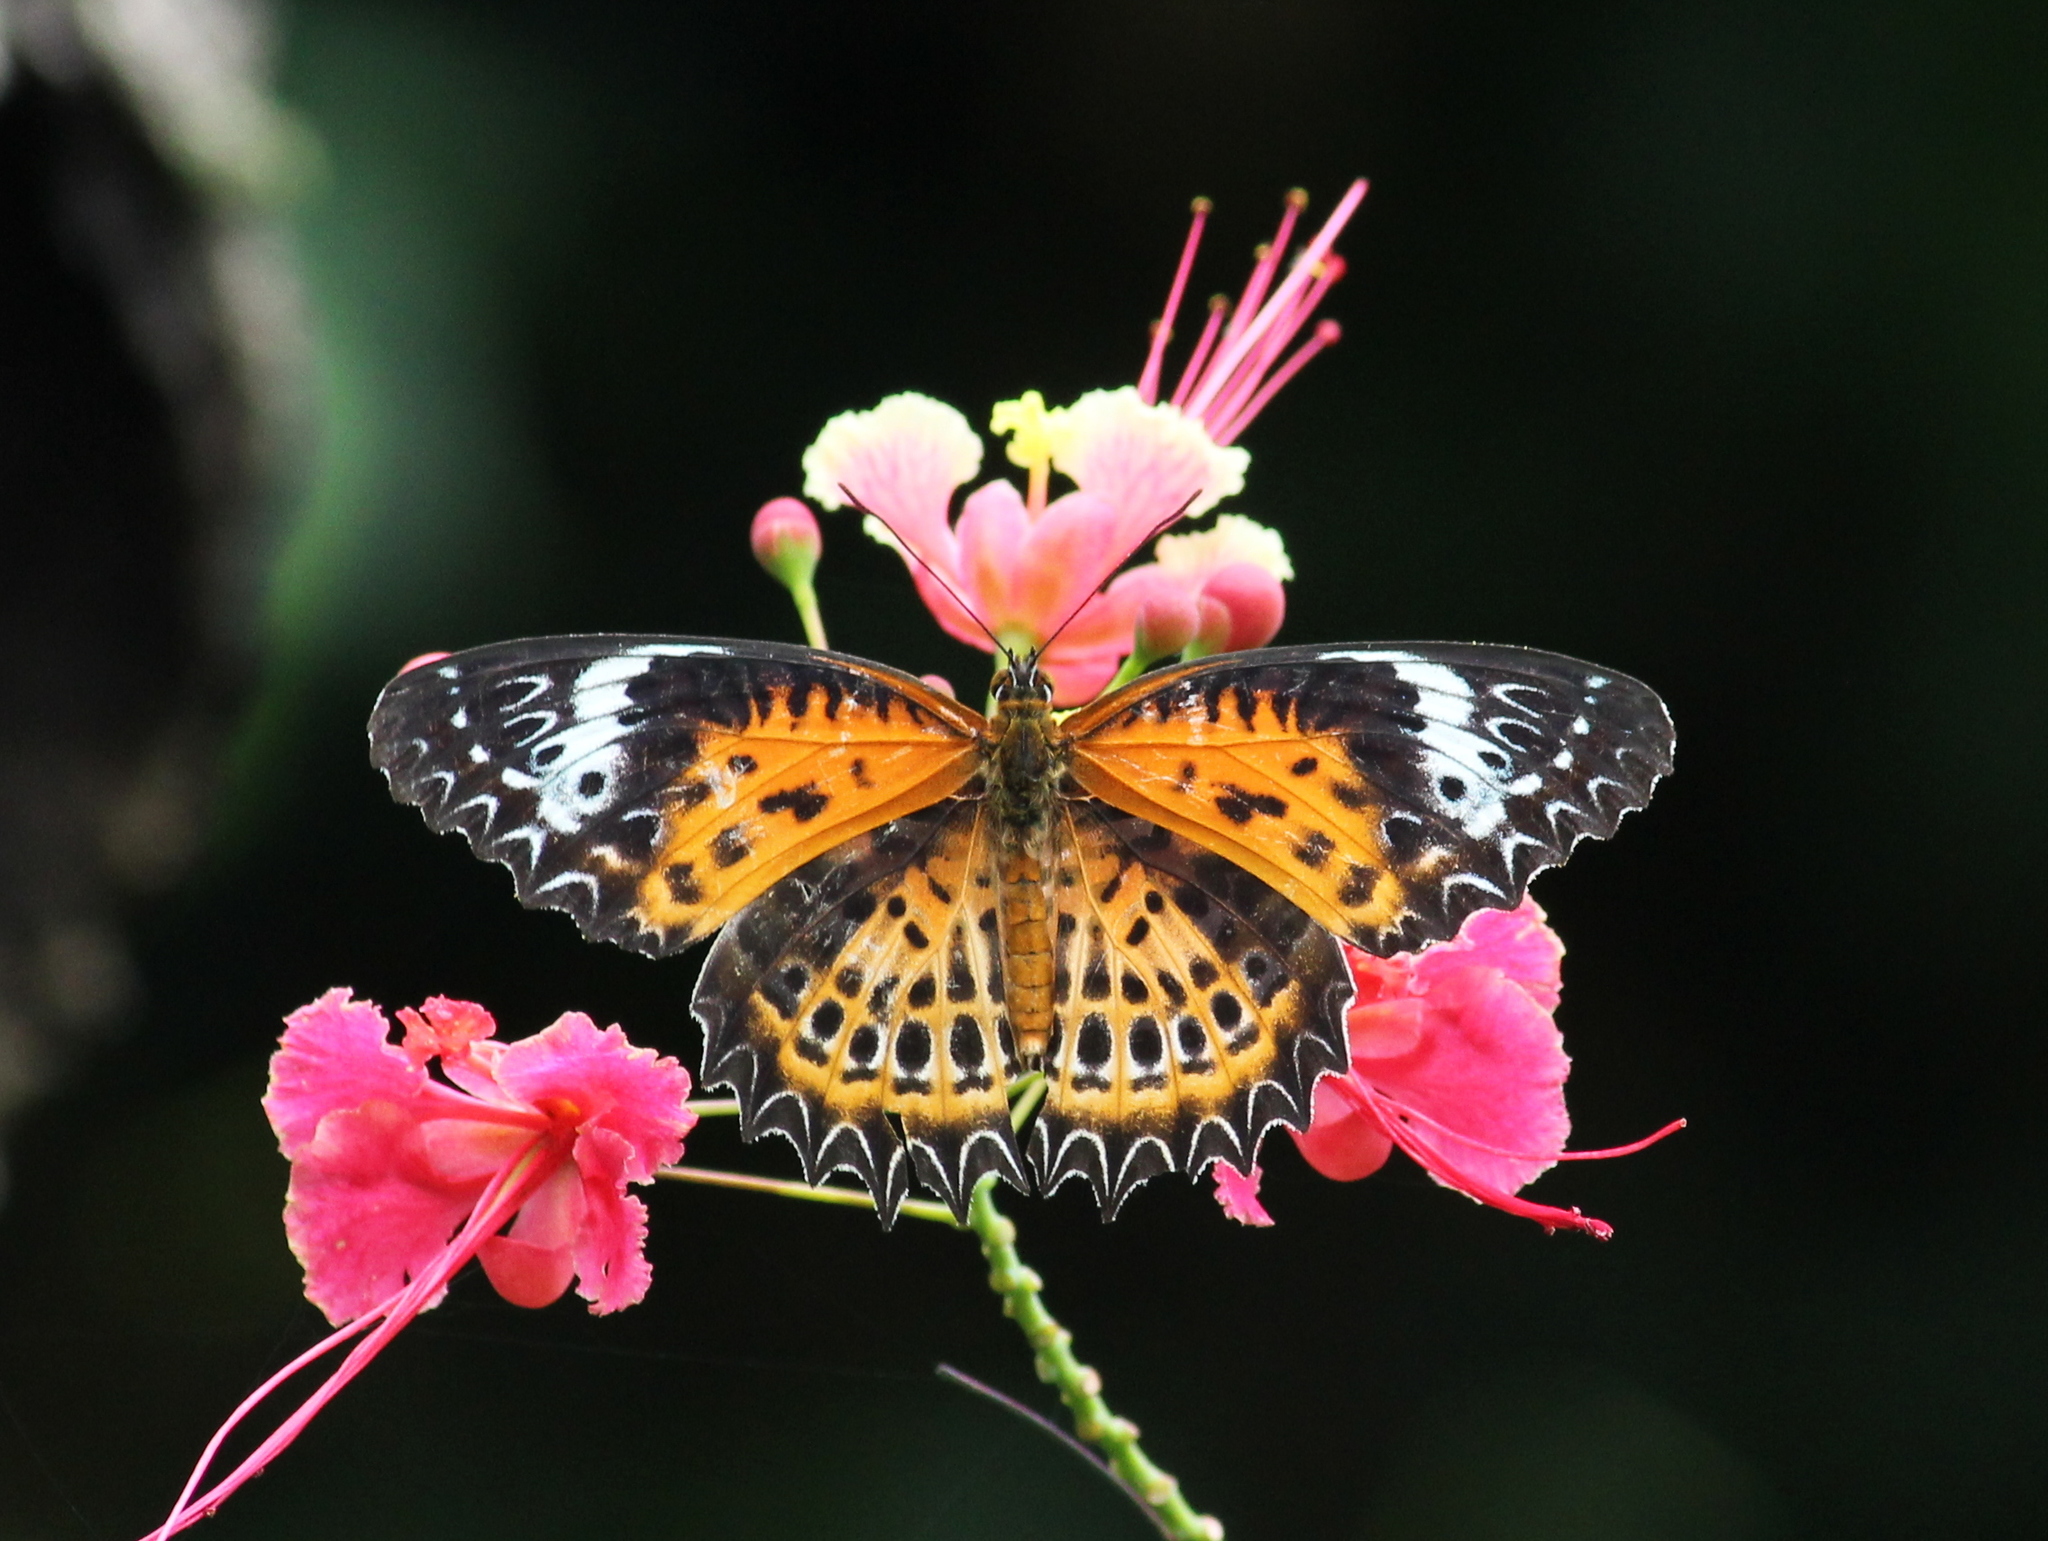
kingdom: Animalia
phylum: Arthropoda
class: Insecta
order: Lepidoptera
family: Nymphalidae
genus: Cethosia
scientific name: Cethosia
